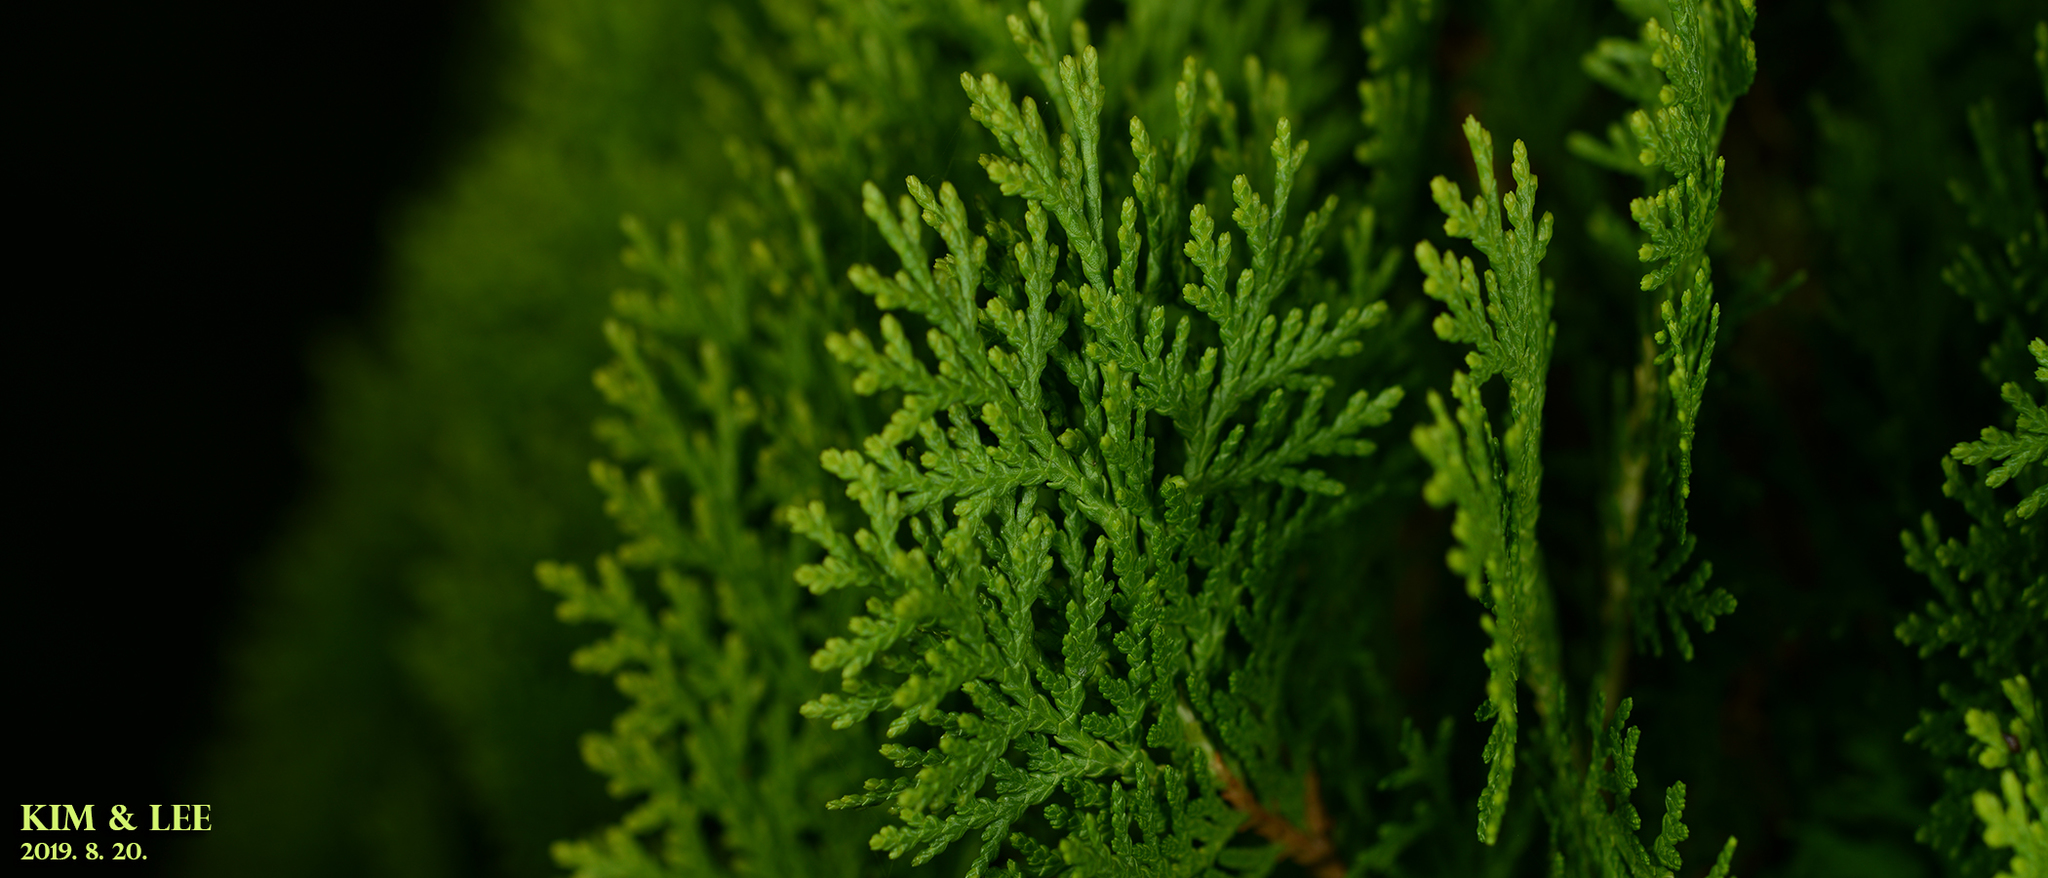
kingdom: Plantae
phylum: Tracheophyta
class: Pinopsida
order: Pinales
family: Cupressaceae
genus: Platycladus
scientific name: Platycladus orientalis
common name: Chinese thuja
